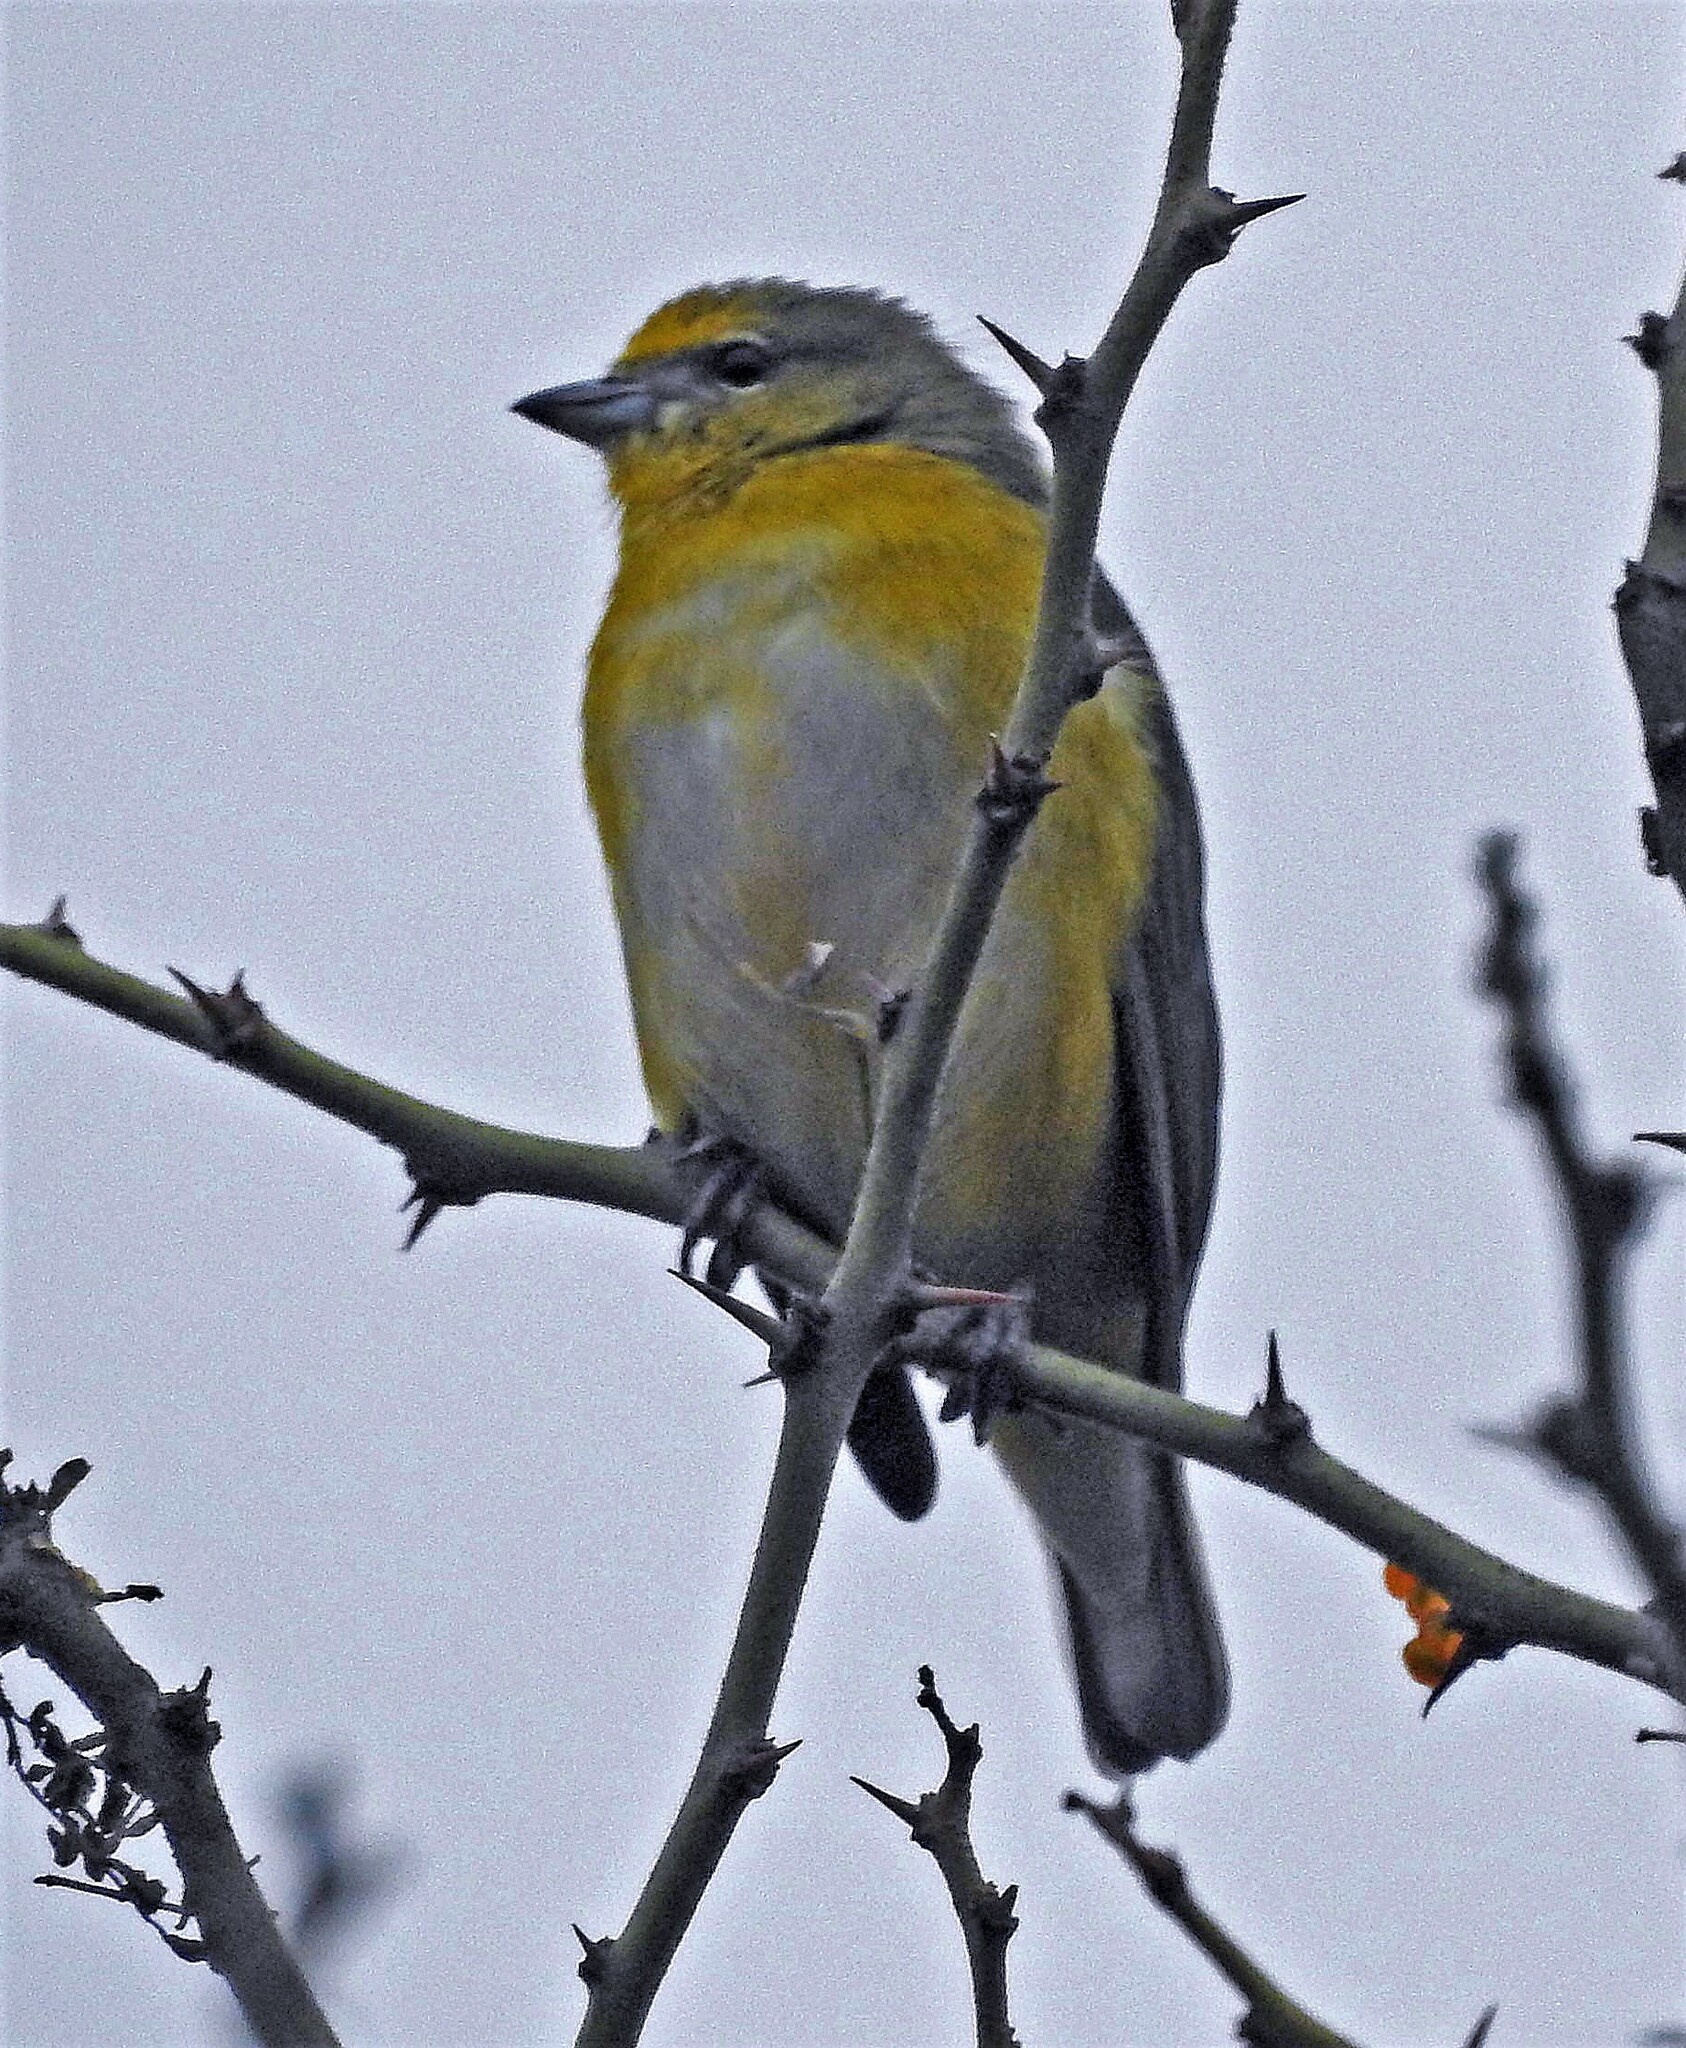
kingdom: Animalia
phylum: Chordata
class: Aves
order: Passeriformes
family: Fringillidae
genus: Euphonia
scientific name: Euphonia chlorotica
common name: Purple-throated euphonia
